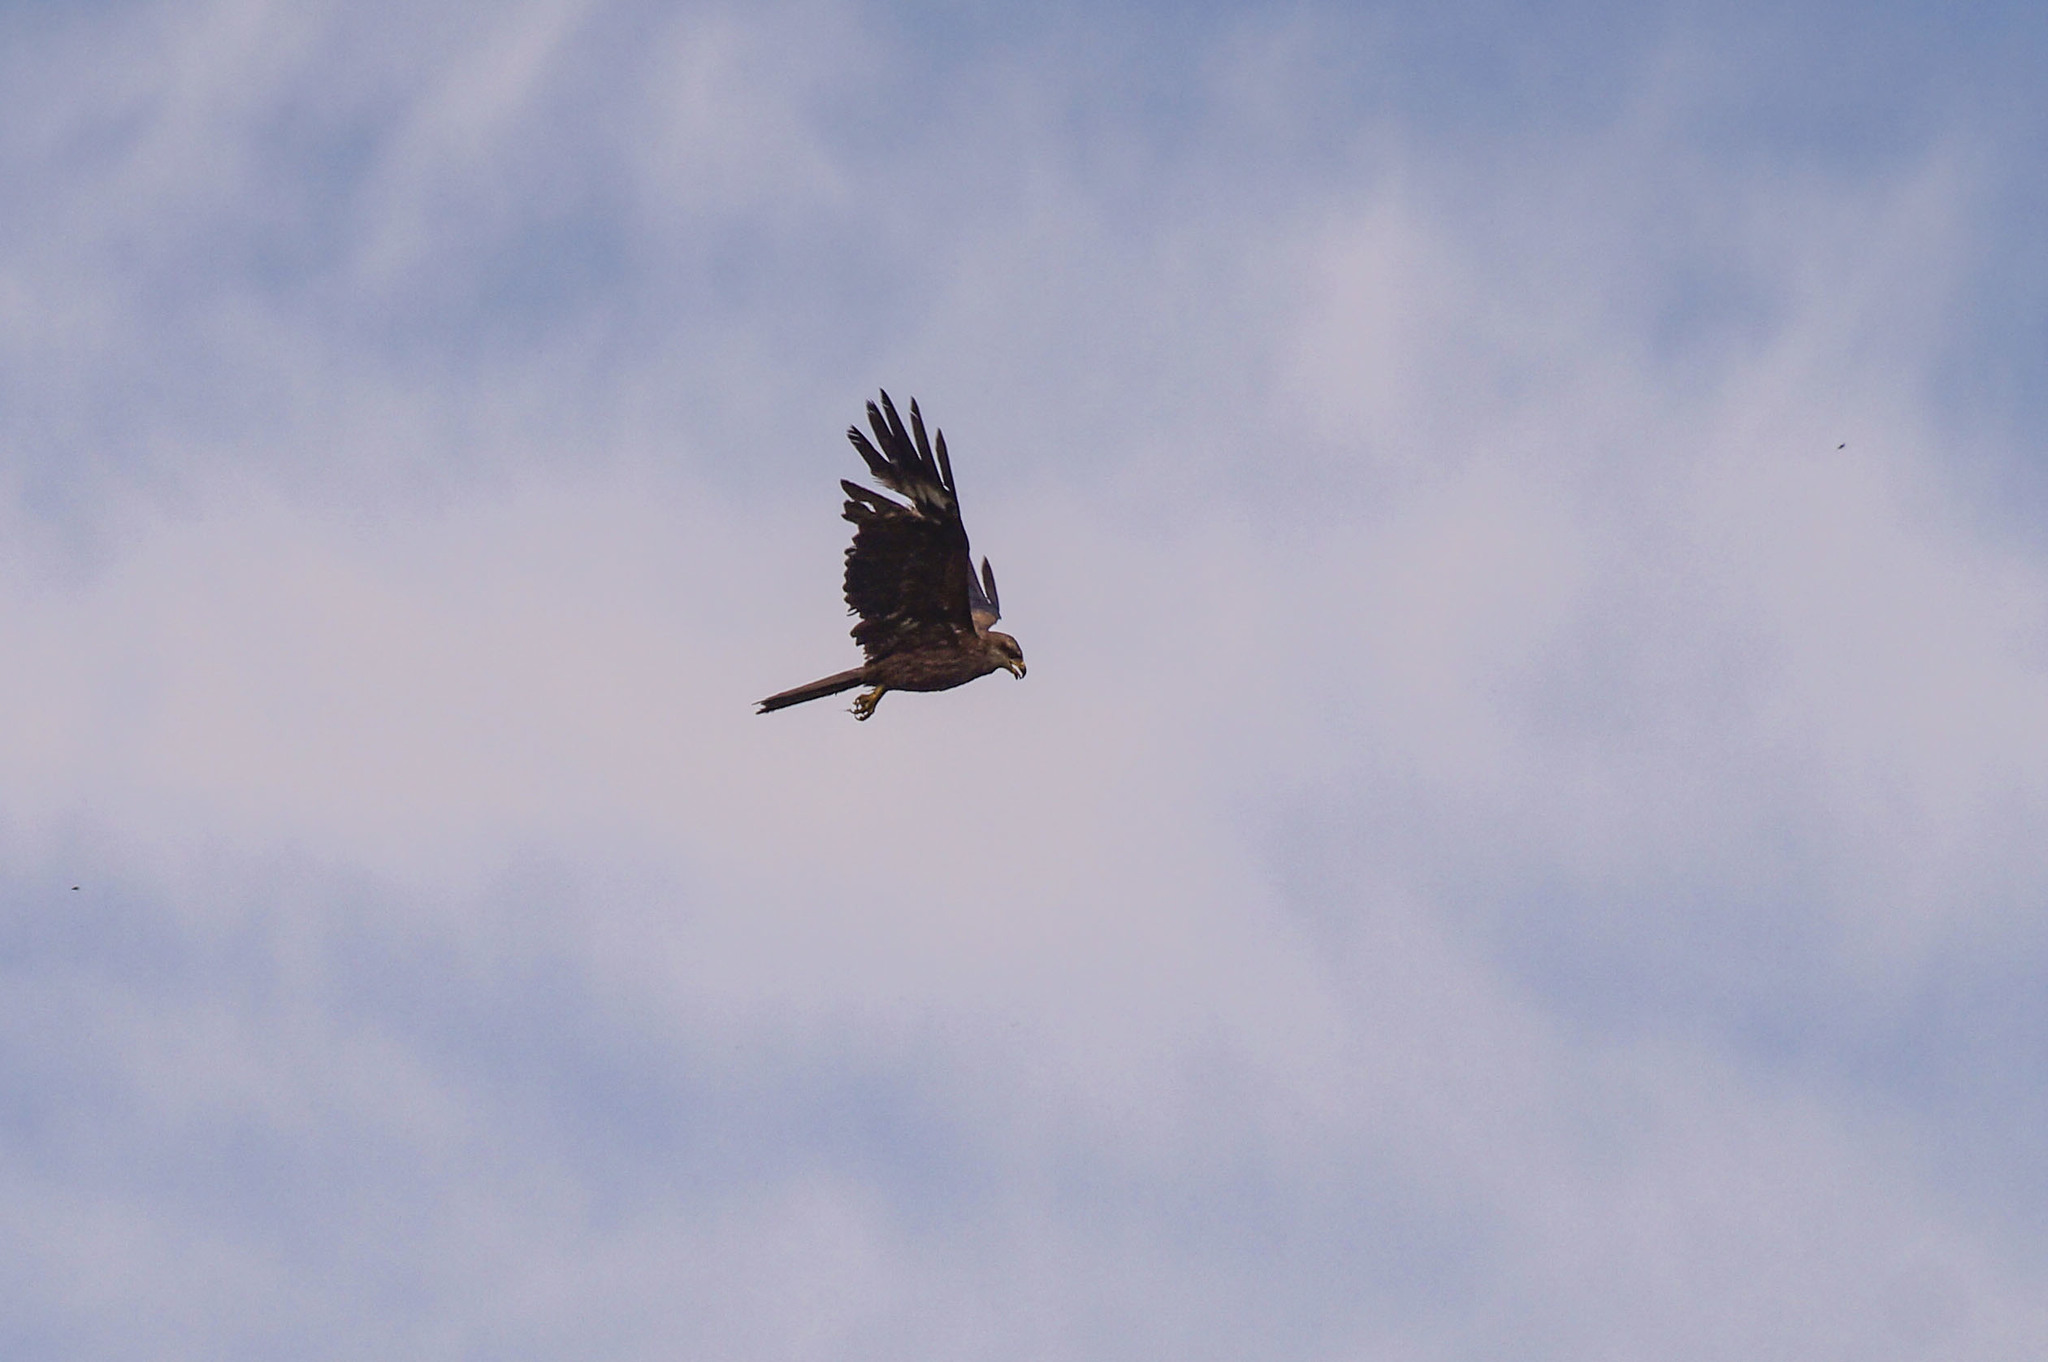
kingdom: Animalia
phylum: Chordata
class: Aves
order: Accipitriformes
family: Accipitridae
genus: Milvus
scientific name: Milvus migrans
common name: Black kite
